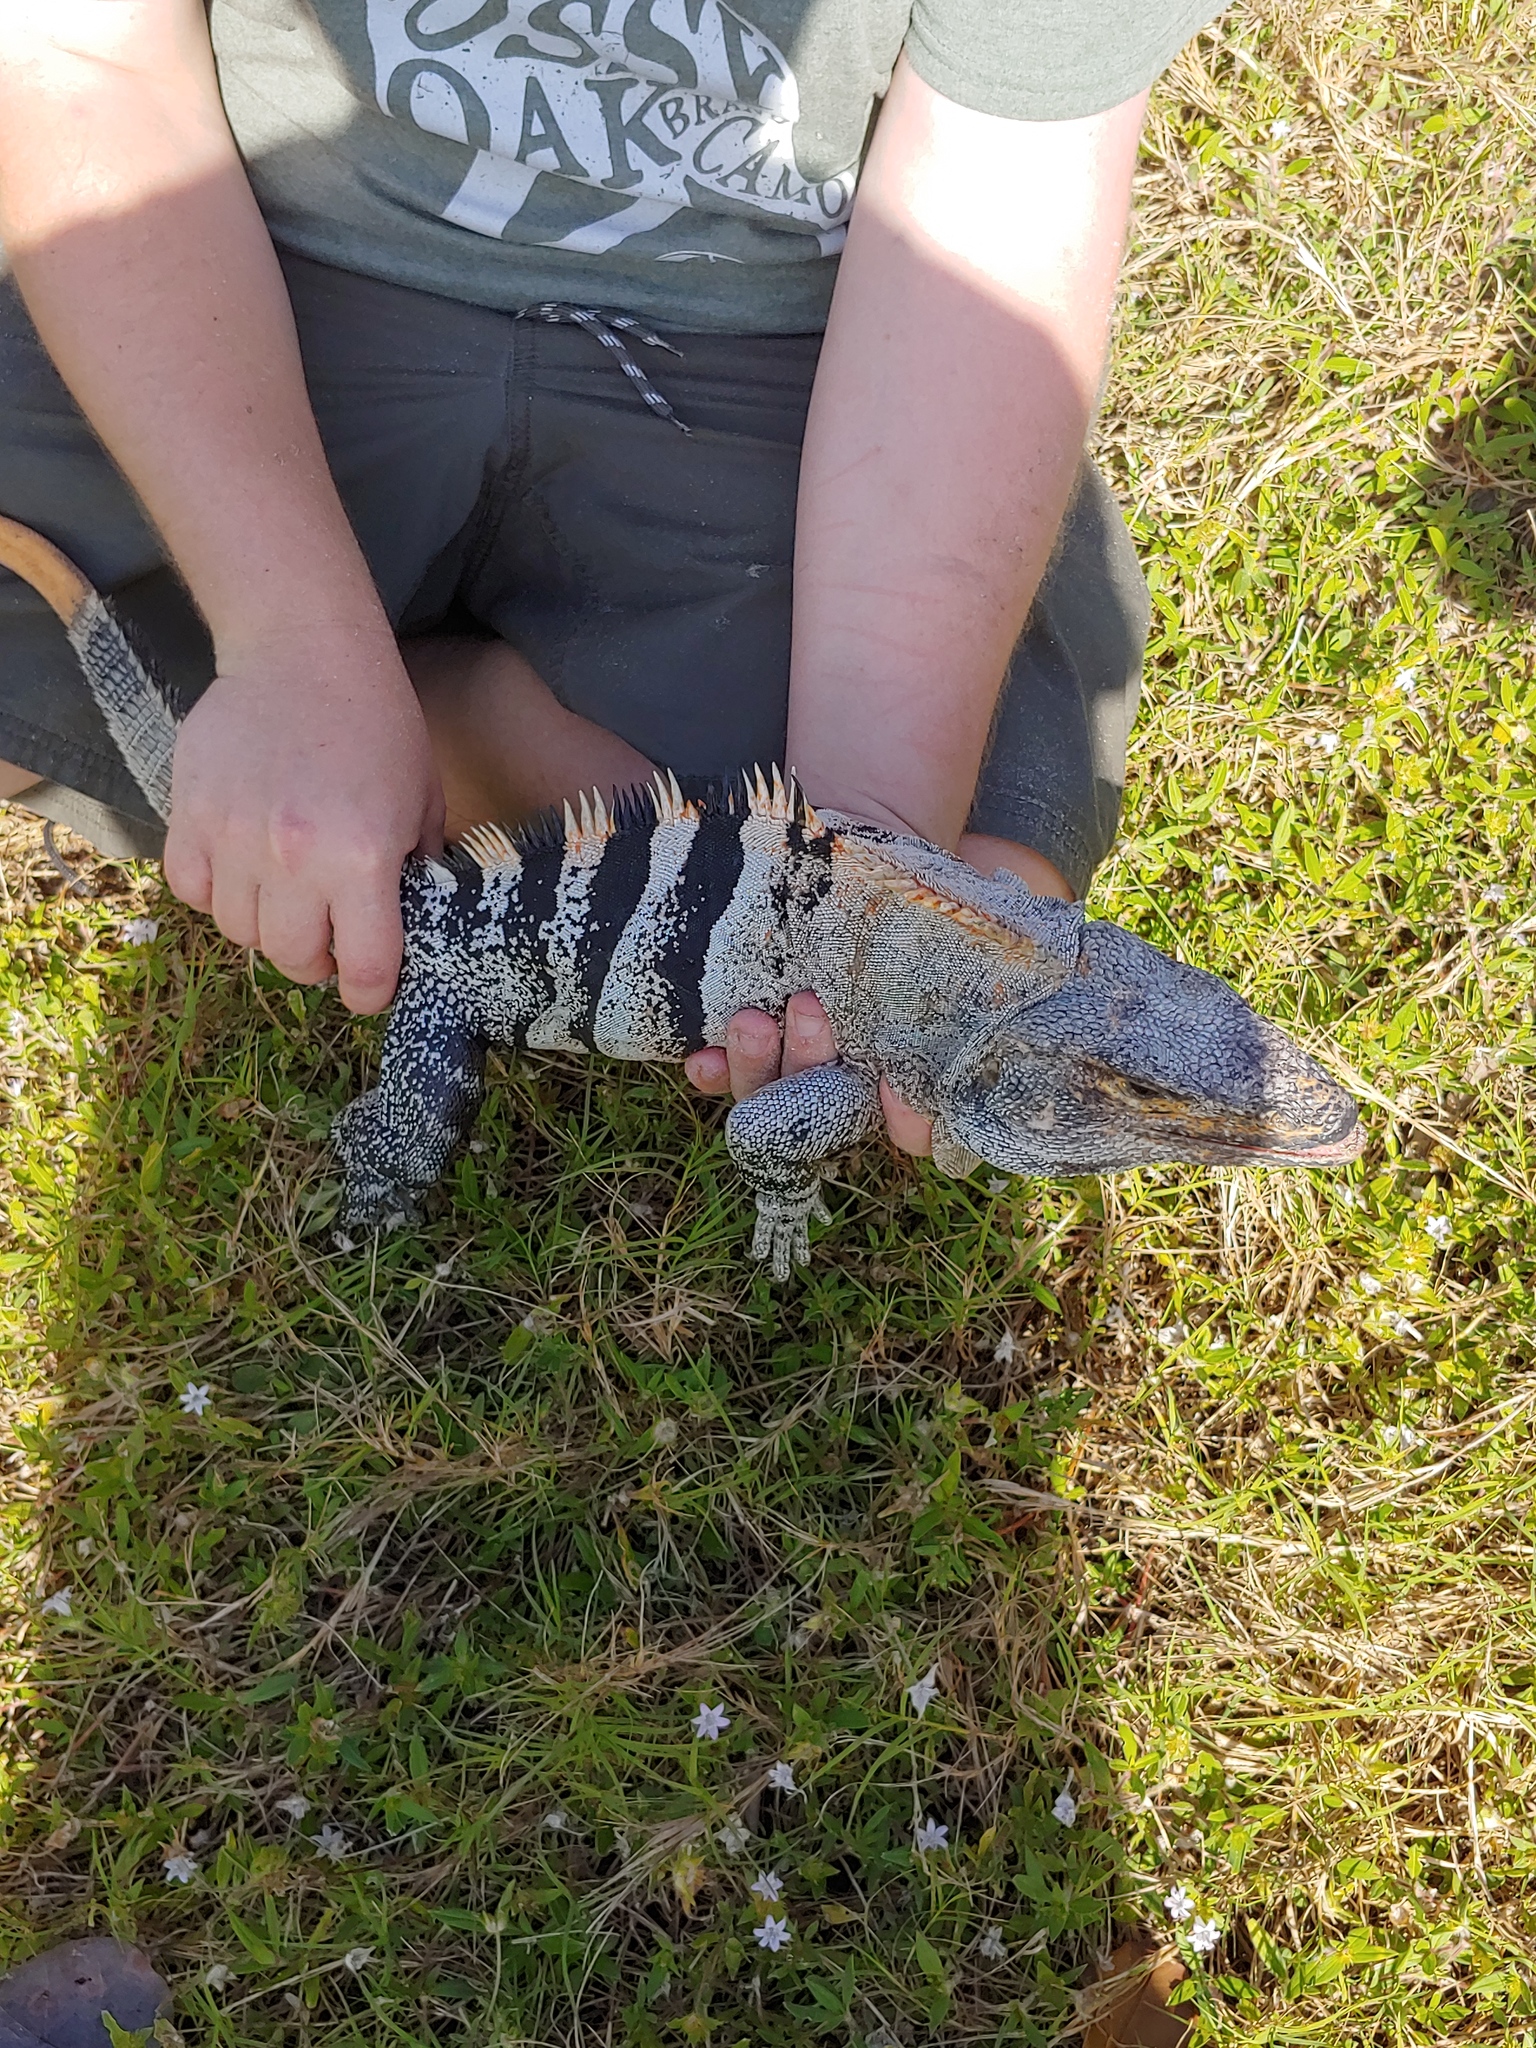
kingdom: Animalia
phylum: Chordata
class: Squamata
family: Iguanidae
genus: Ctenosaura
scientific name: Ctenosaura similis
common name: Black spiny-tailed iguana
